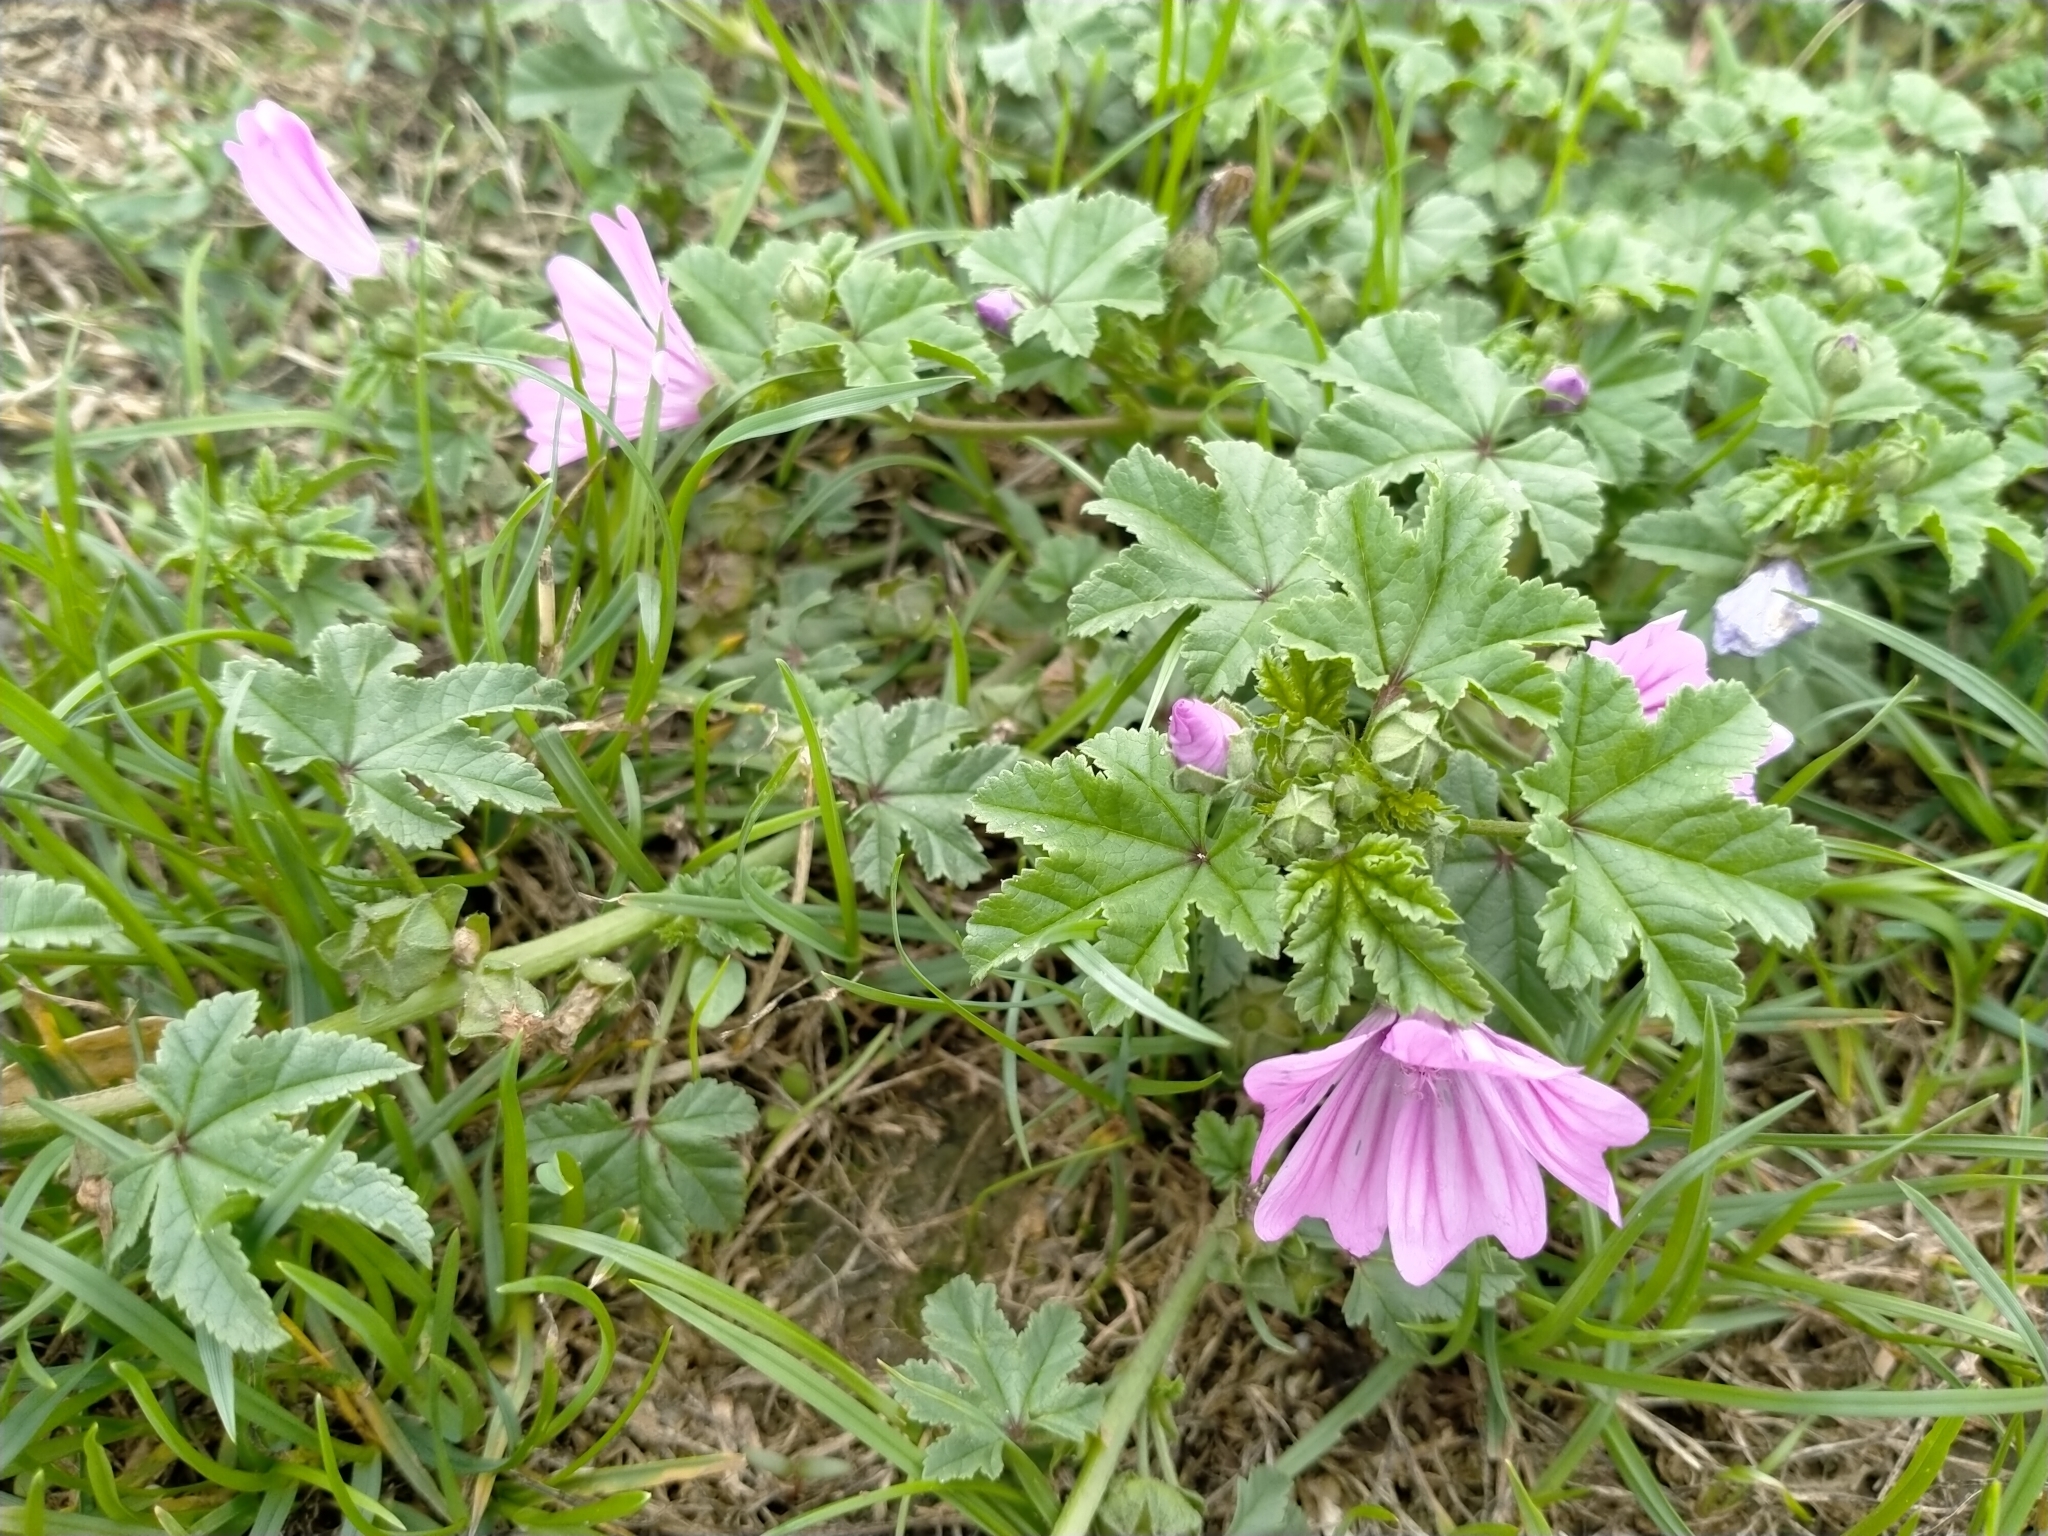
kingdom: Plantae
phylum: Tracheophyta
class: Magnoliopsida
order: Malvales
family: Malvaceae
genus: Malva
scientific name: Malva sylvestris
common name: Common mallow
